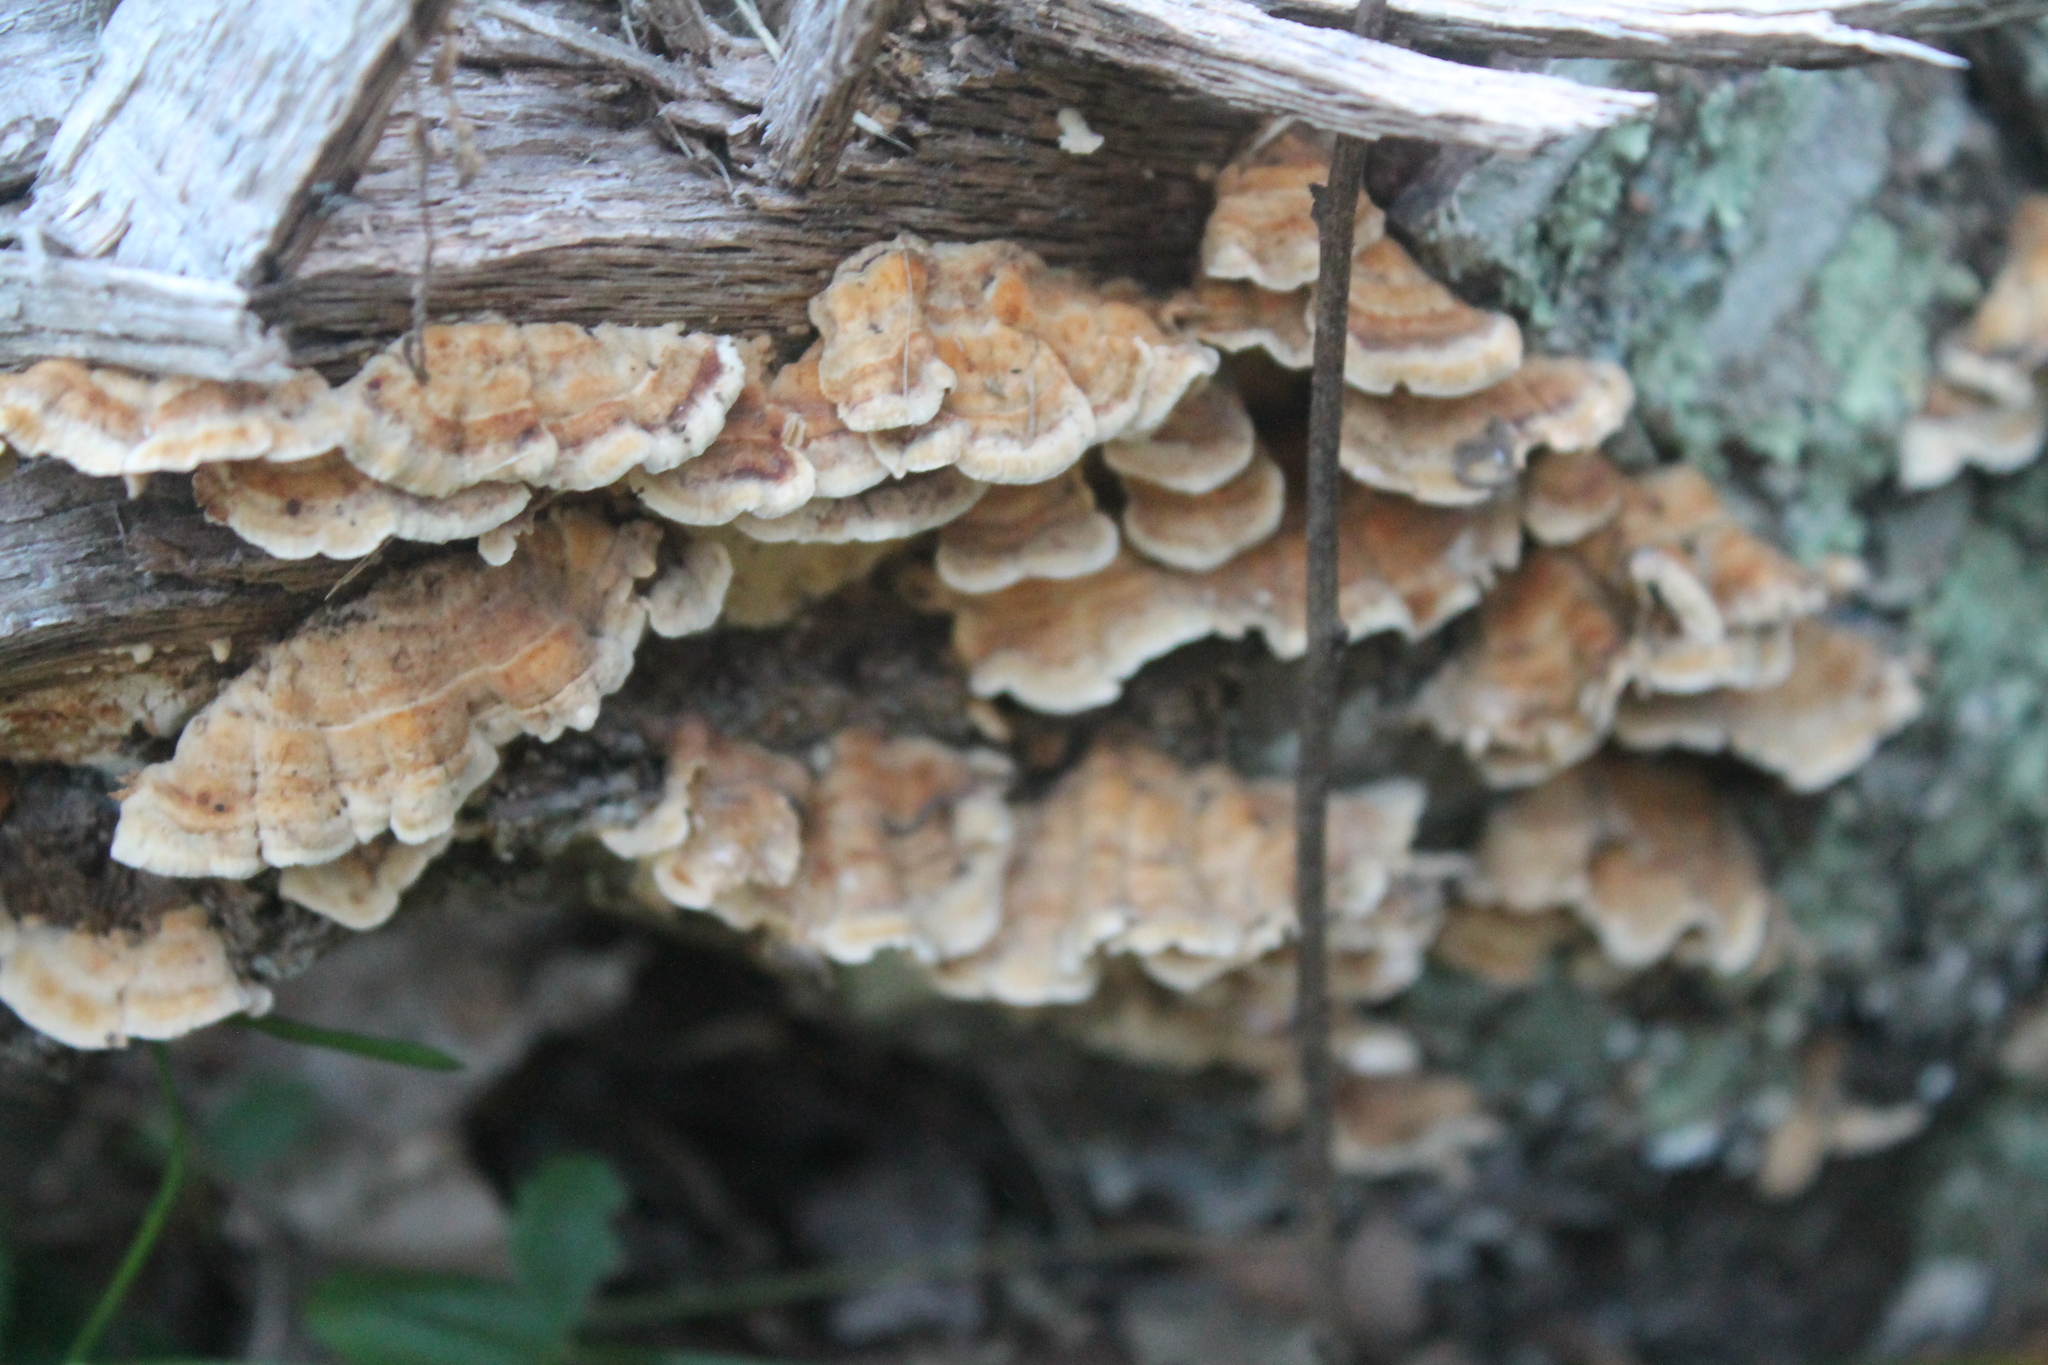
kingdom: Fungi
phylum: Basidiomycota
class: Agaricomycetes
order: Russulales
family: Stereaceae
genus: Stereum
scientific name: Stereum complicatum
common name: Crowded parchment
